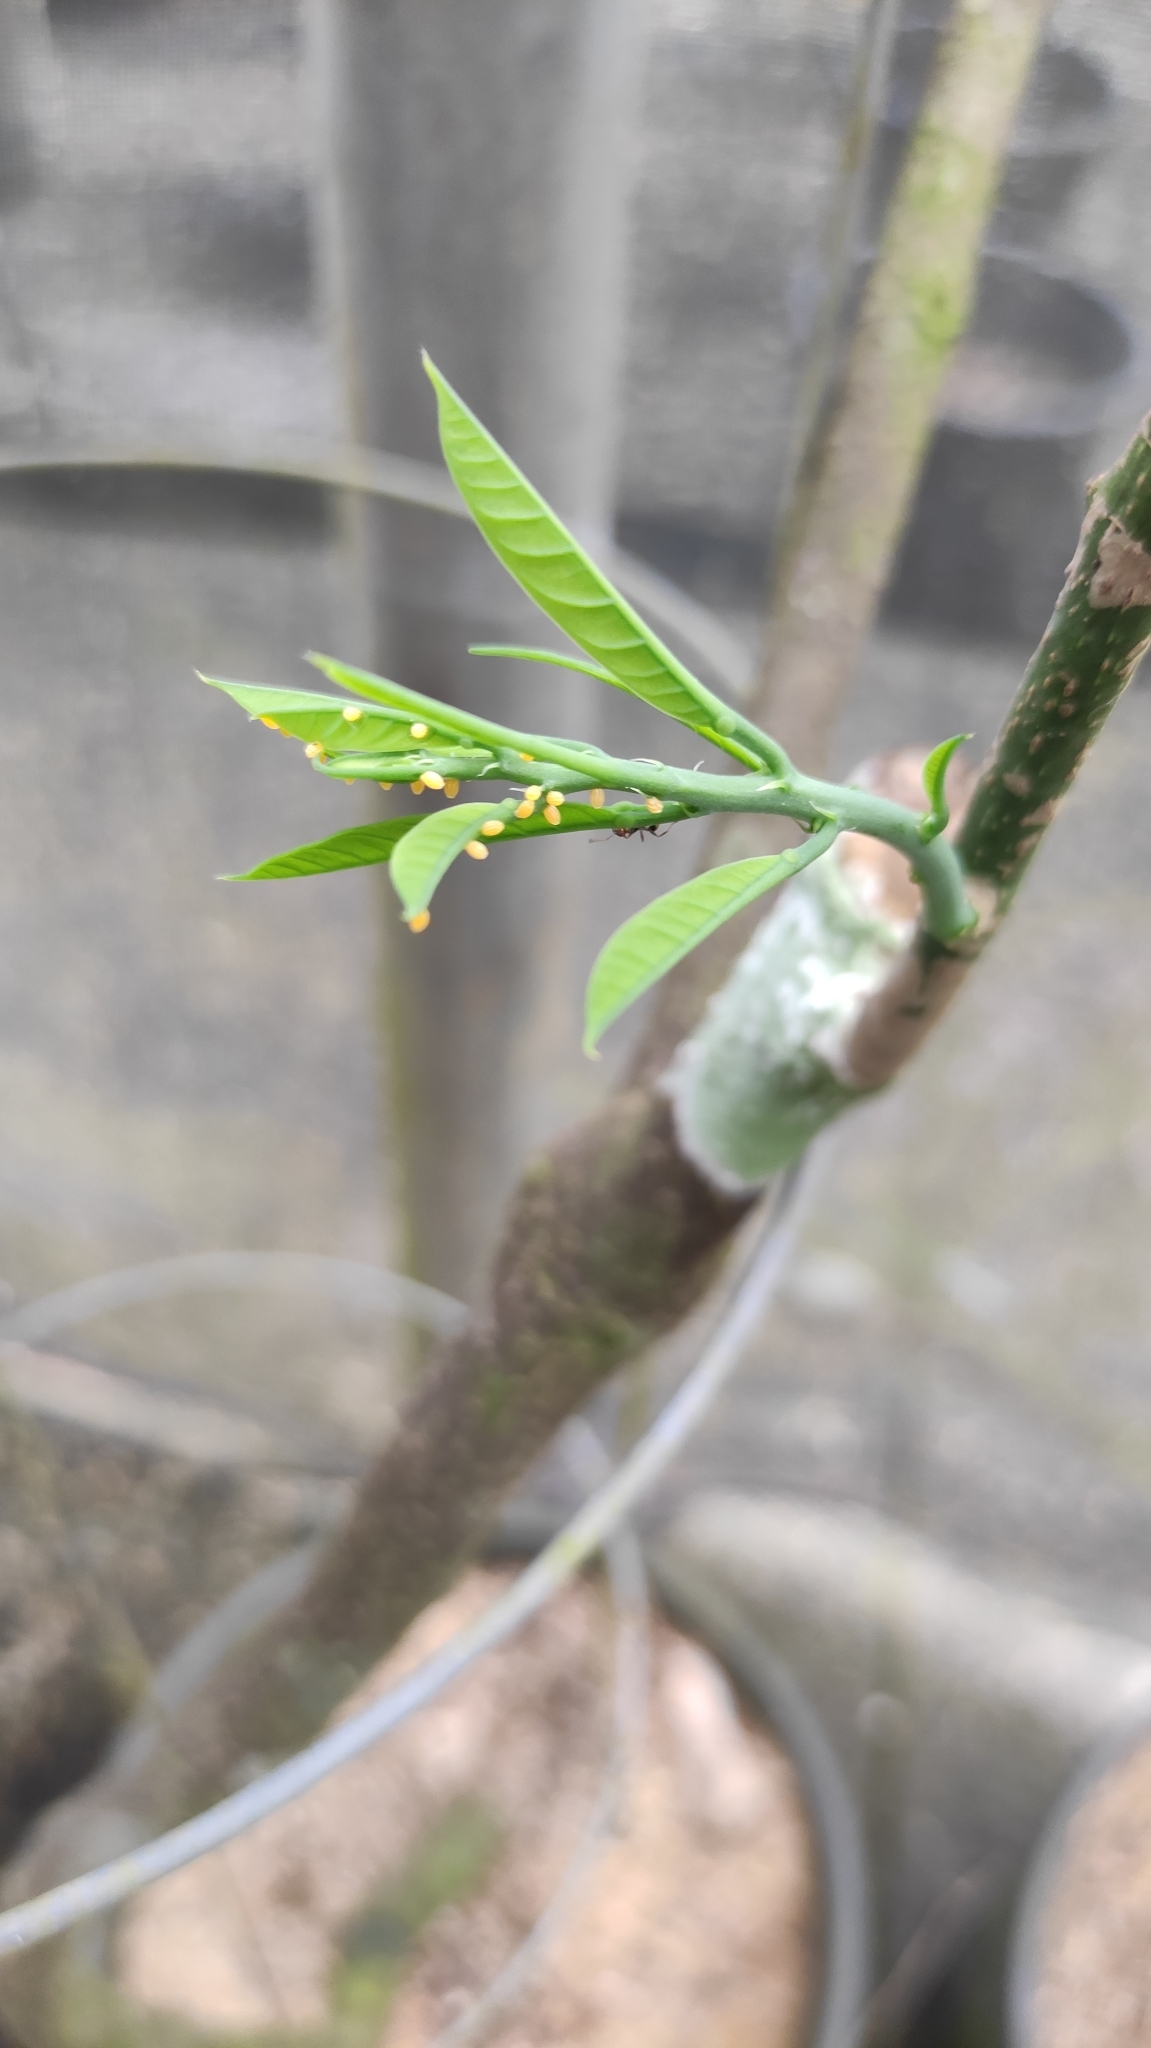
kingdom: Plantae
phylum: Tracheophyta
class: Magnoliopsida
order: Malpighiales
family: Passifloraceae
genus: Passiflora
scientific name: Passiflora pittieri
